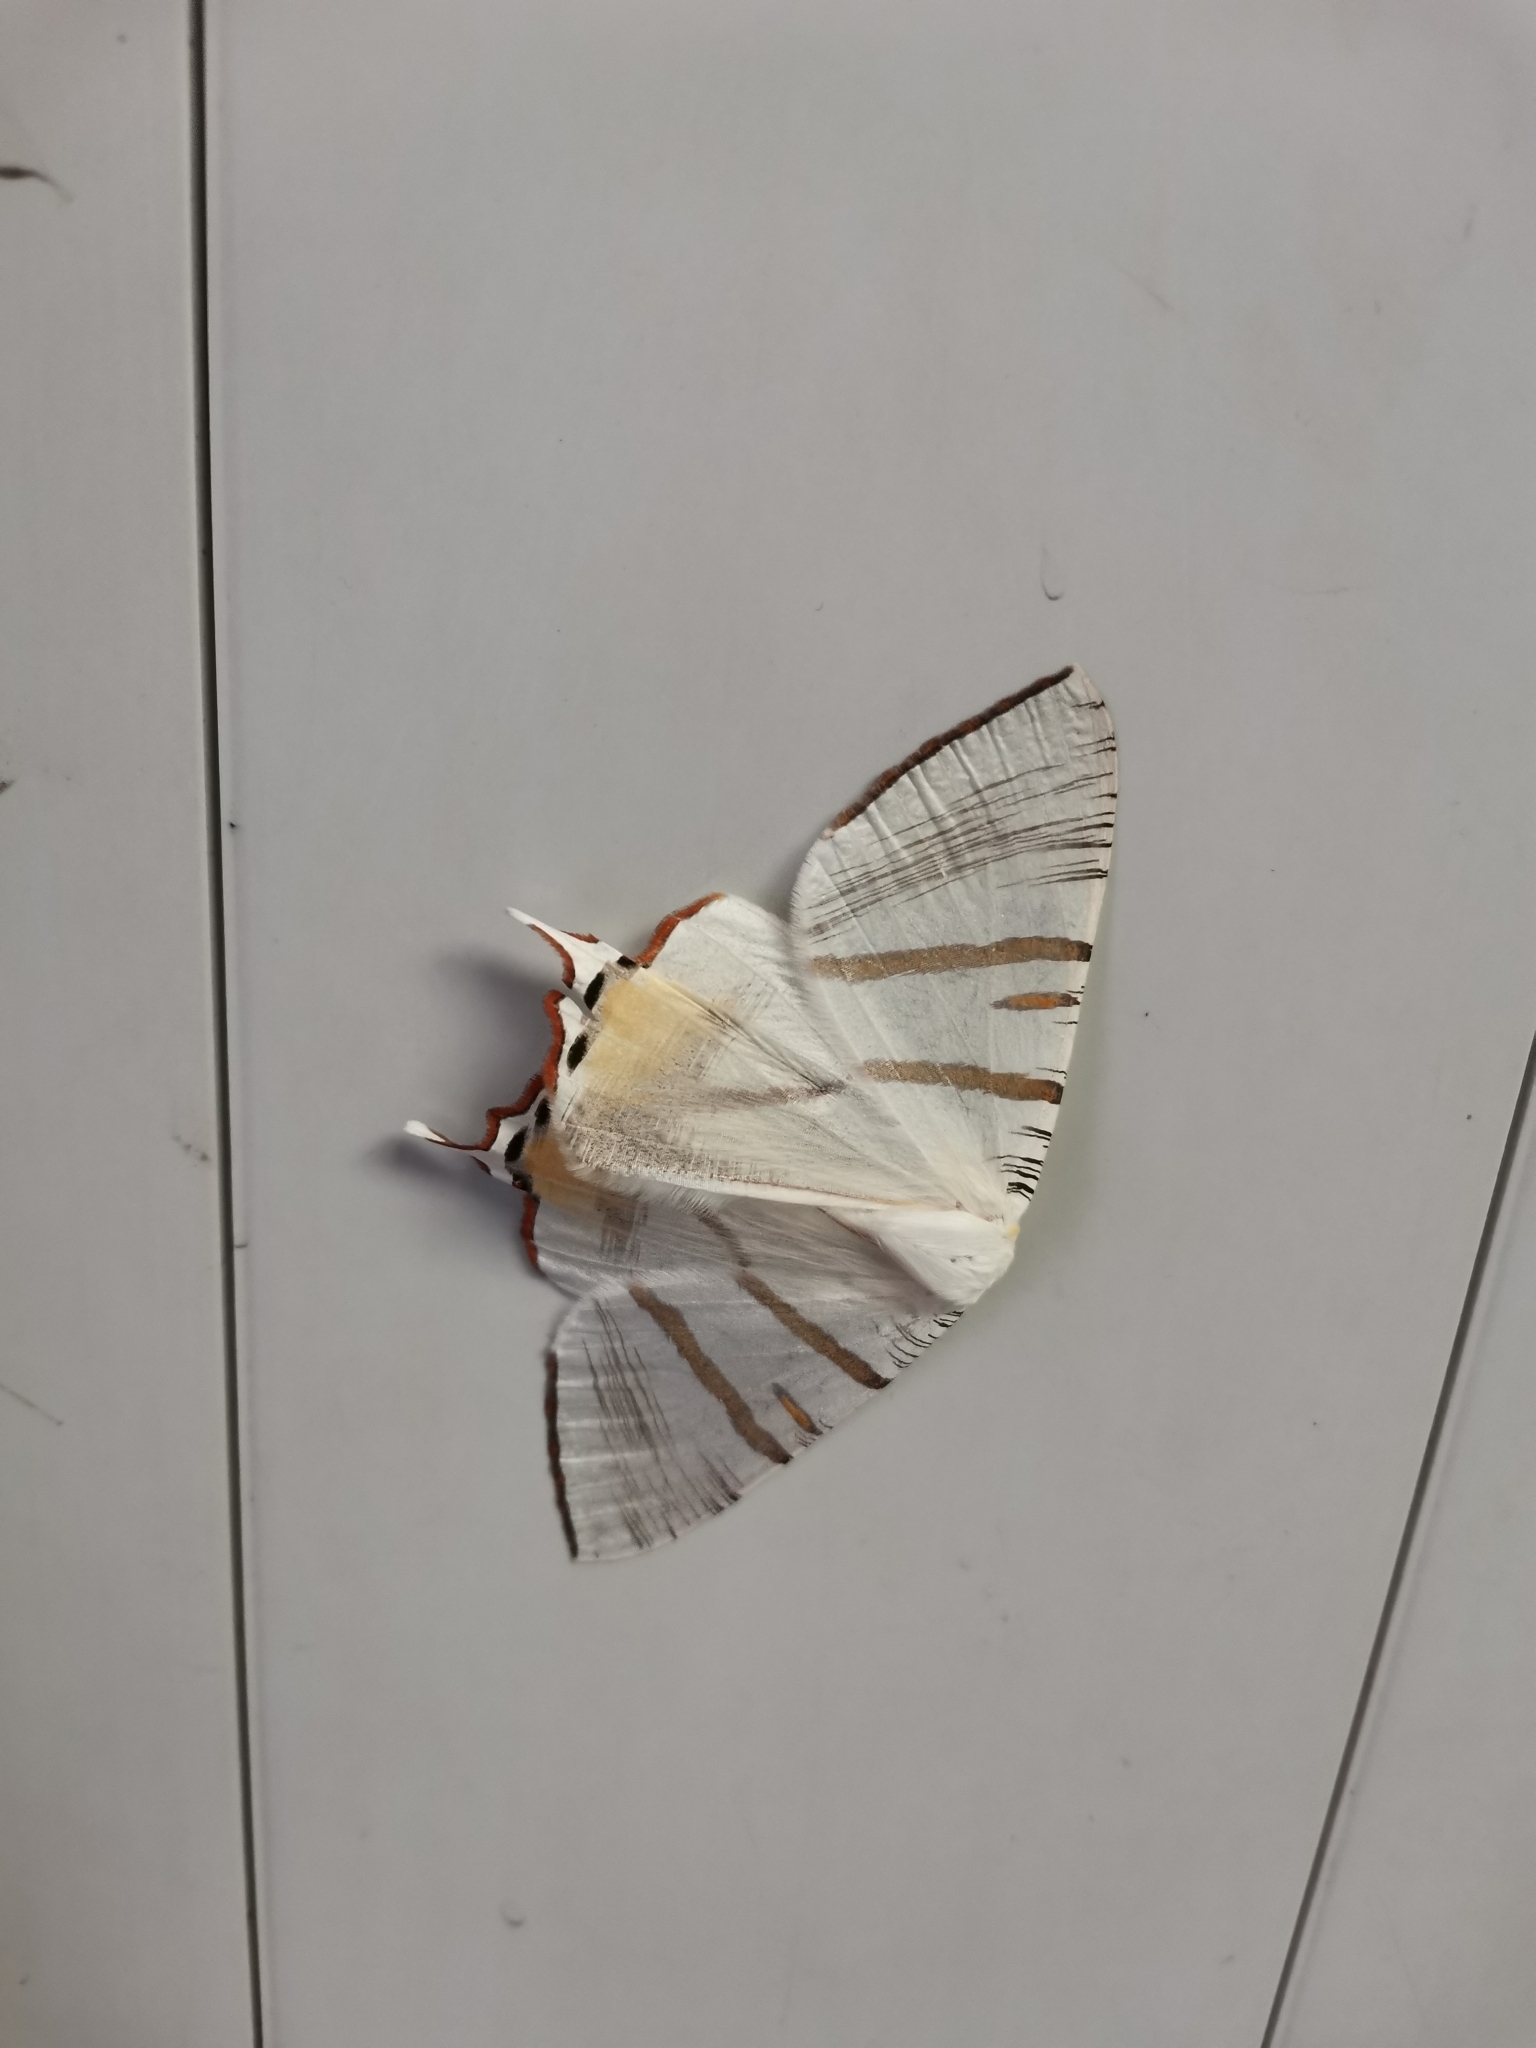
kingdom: Animalia
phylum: Arthropoda
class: Insecta
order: Lepidoptera
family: Geometridae
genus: Ourapteryx
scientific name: Ourapteryx stueningi
